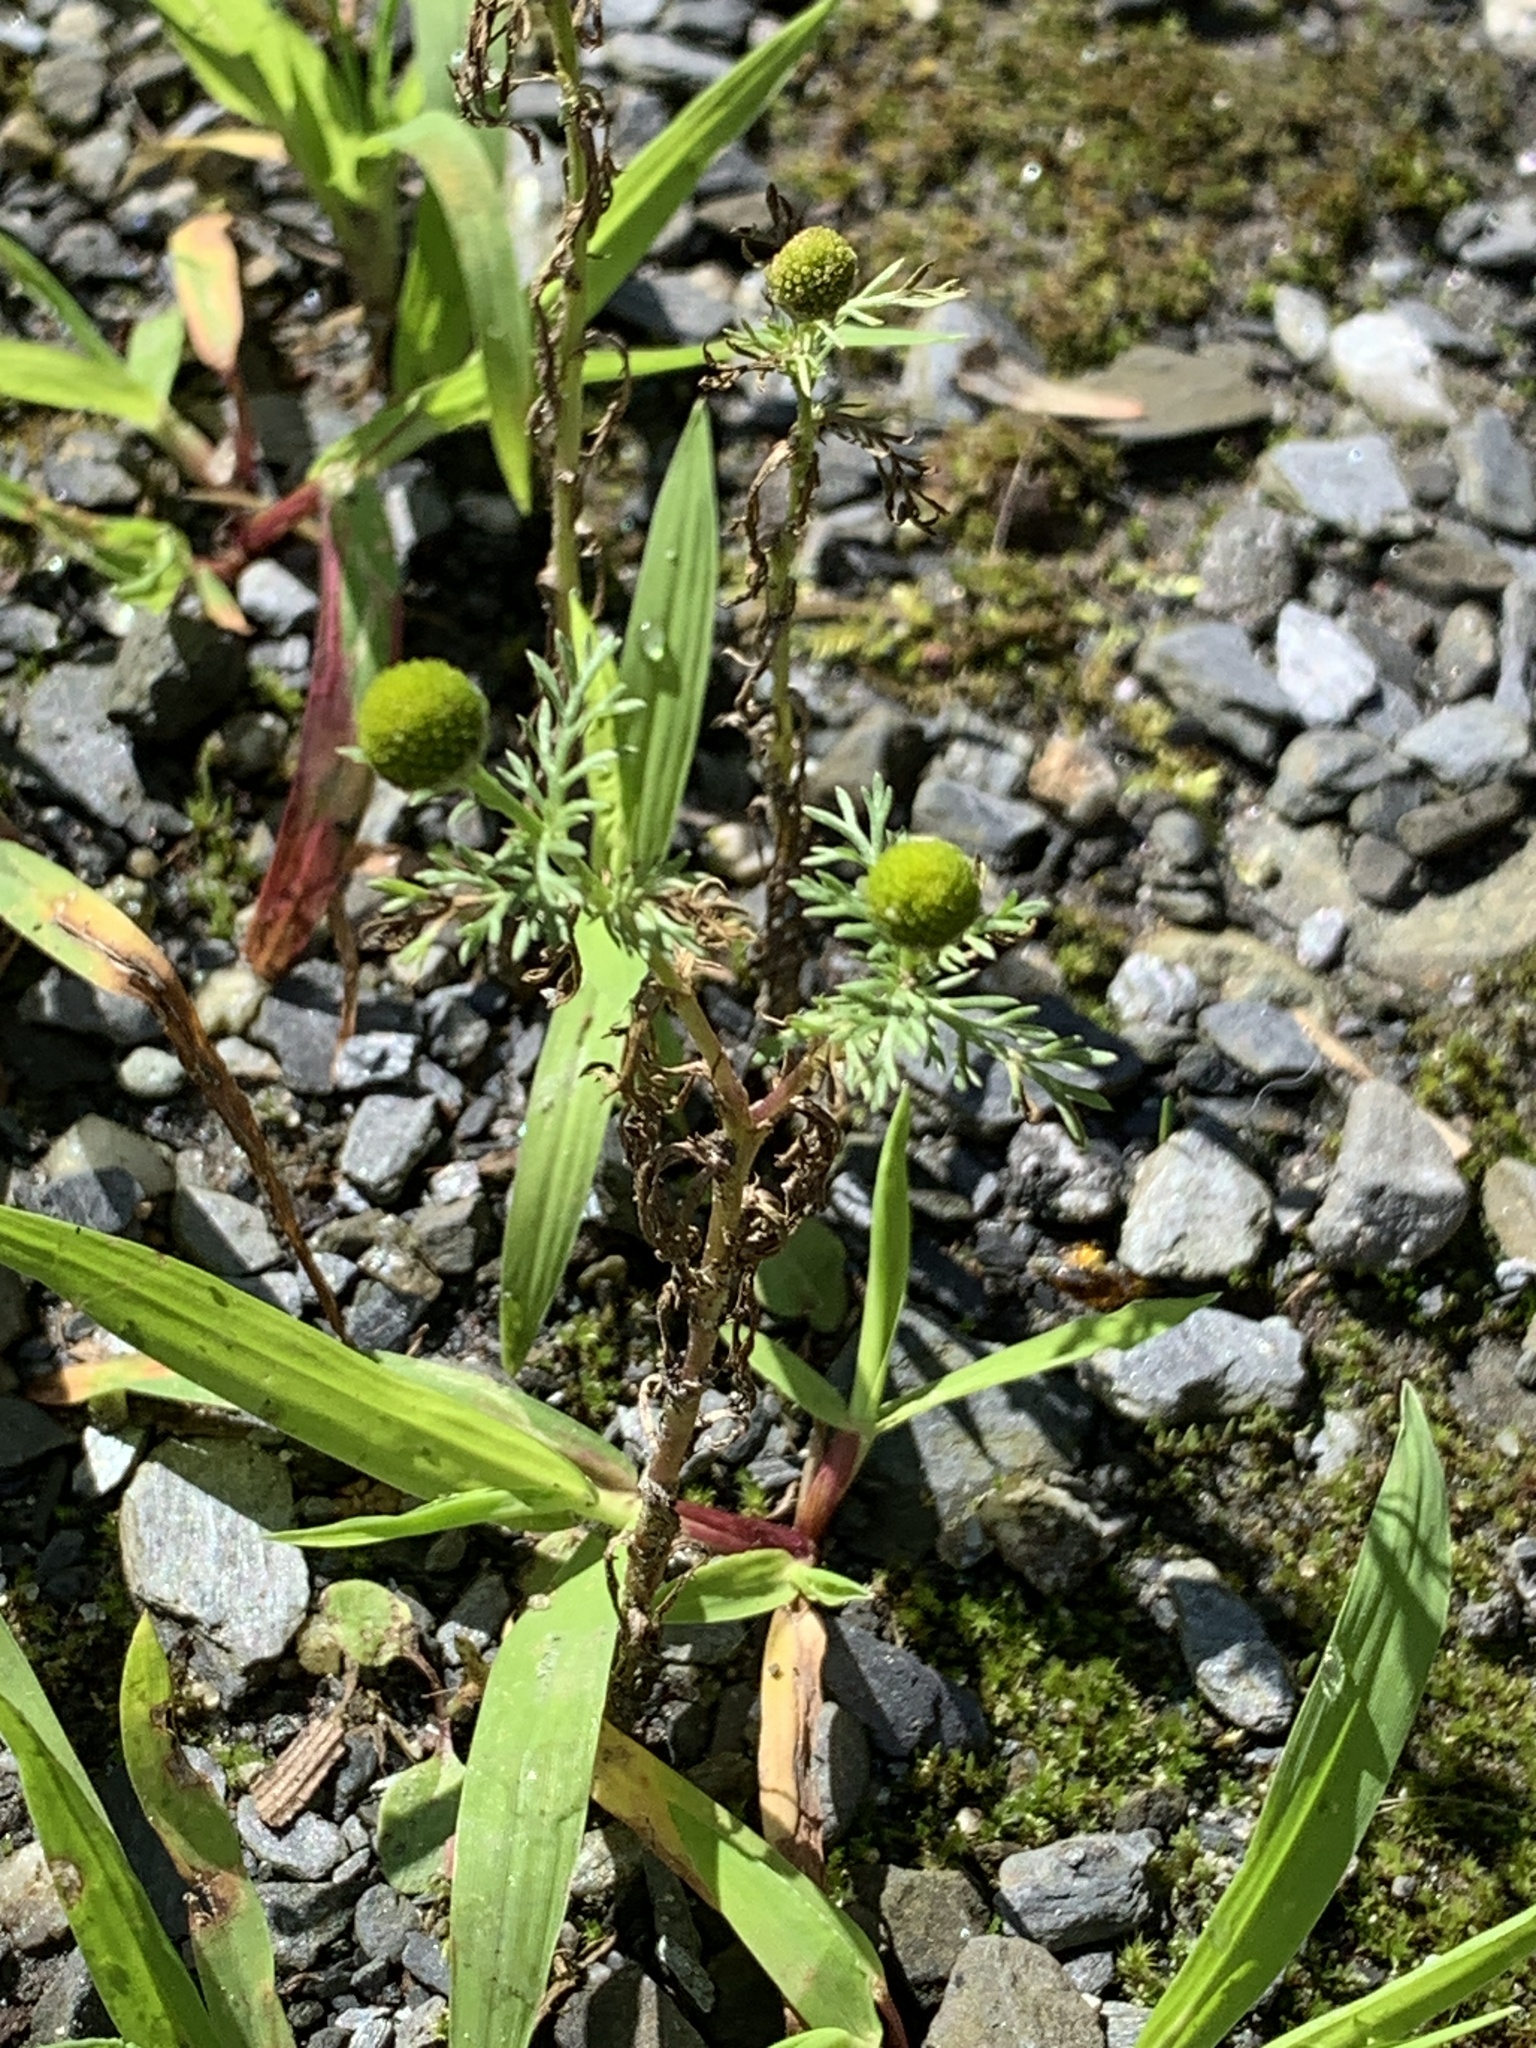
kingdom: Plantae
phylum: Tracheophyta
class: Magnoliopsida
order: Asterales
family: Asteraceae
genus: Matricaria
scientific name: Matricaria discoidea
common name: Disc mayweed
